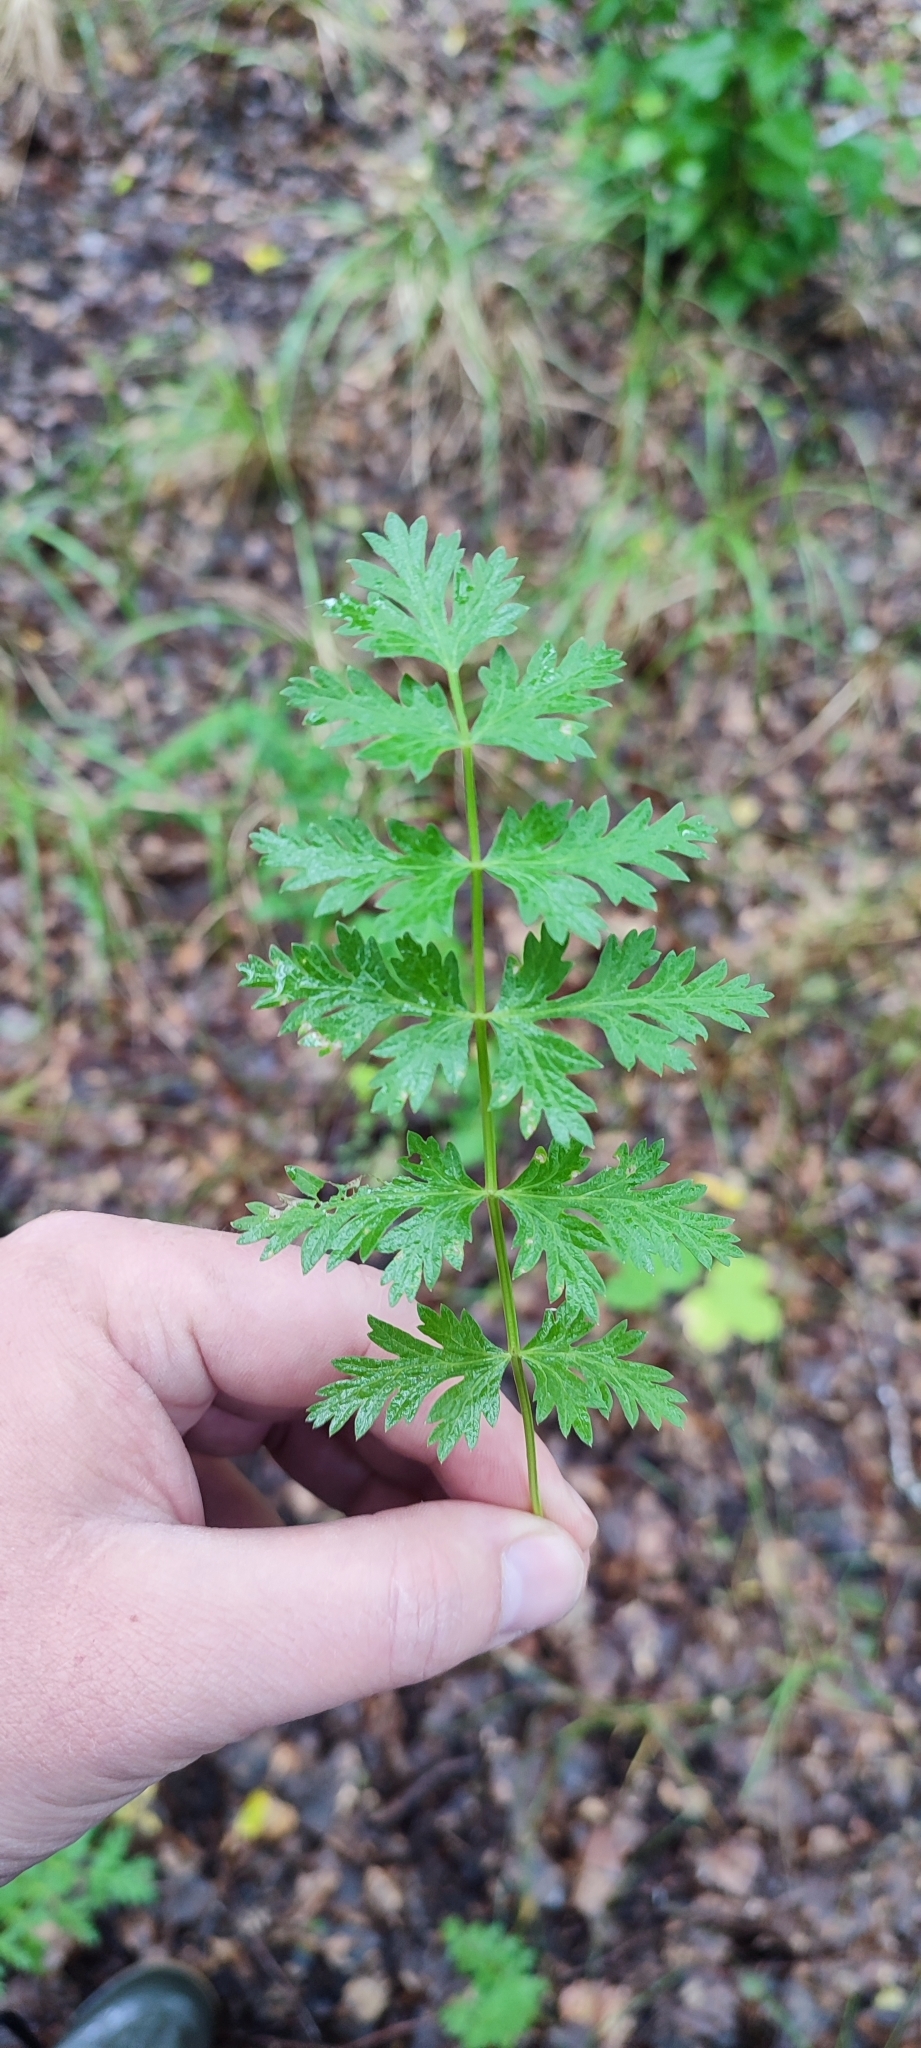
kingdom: Plantae
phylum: Tracheophyta
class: Magnoliopsida
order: Apiales
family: Apiaceae
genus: Seseli
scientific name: Seseli libanotis
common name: Mooncarrot
